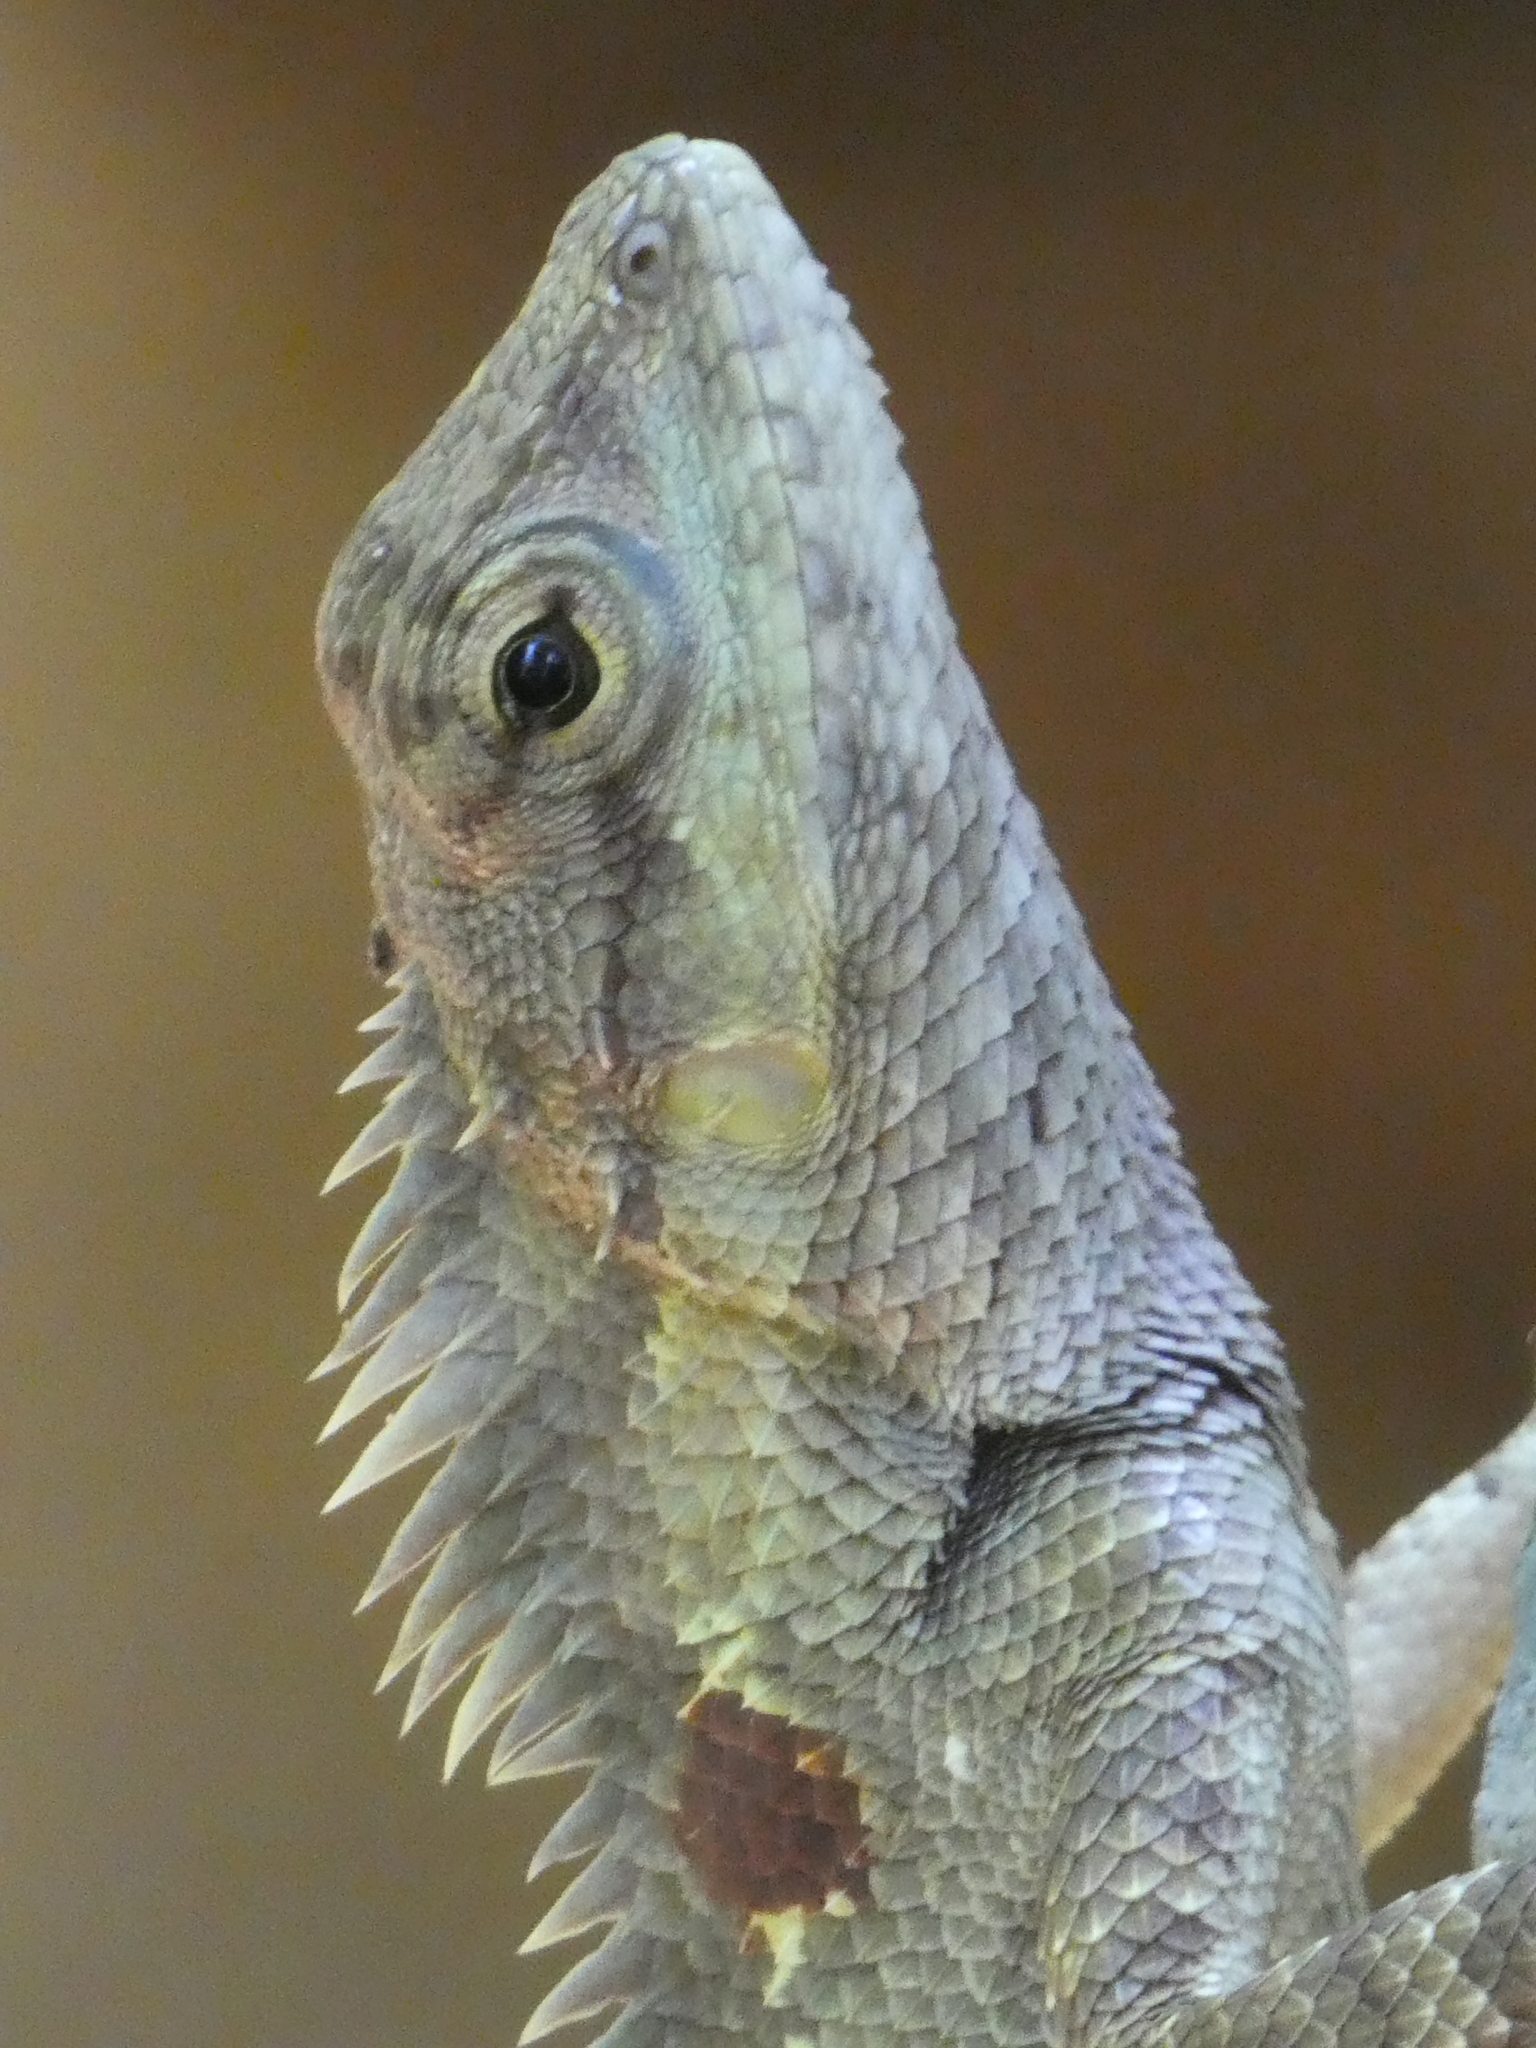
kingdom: Animalia
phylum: Chordata
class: Squamata
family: Agamidae
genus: Calotes
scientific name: Calotes goetzi
